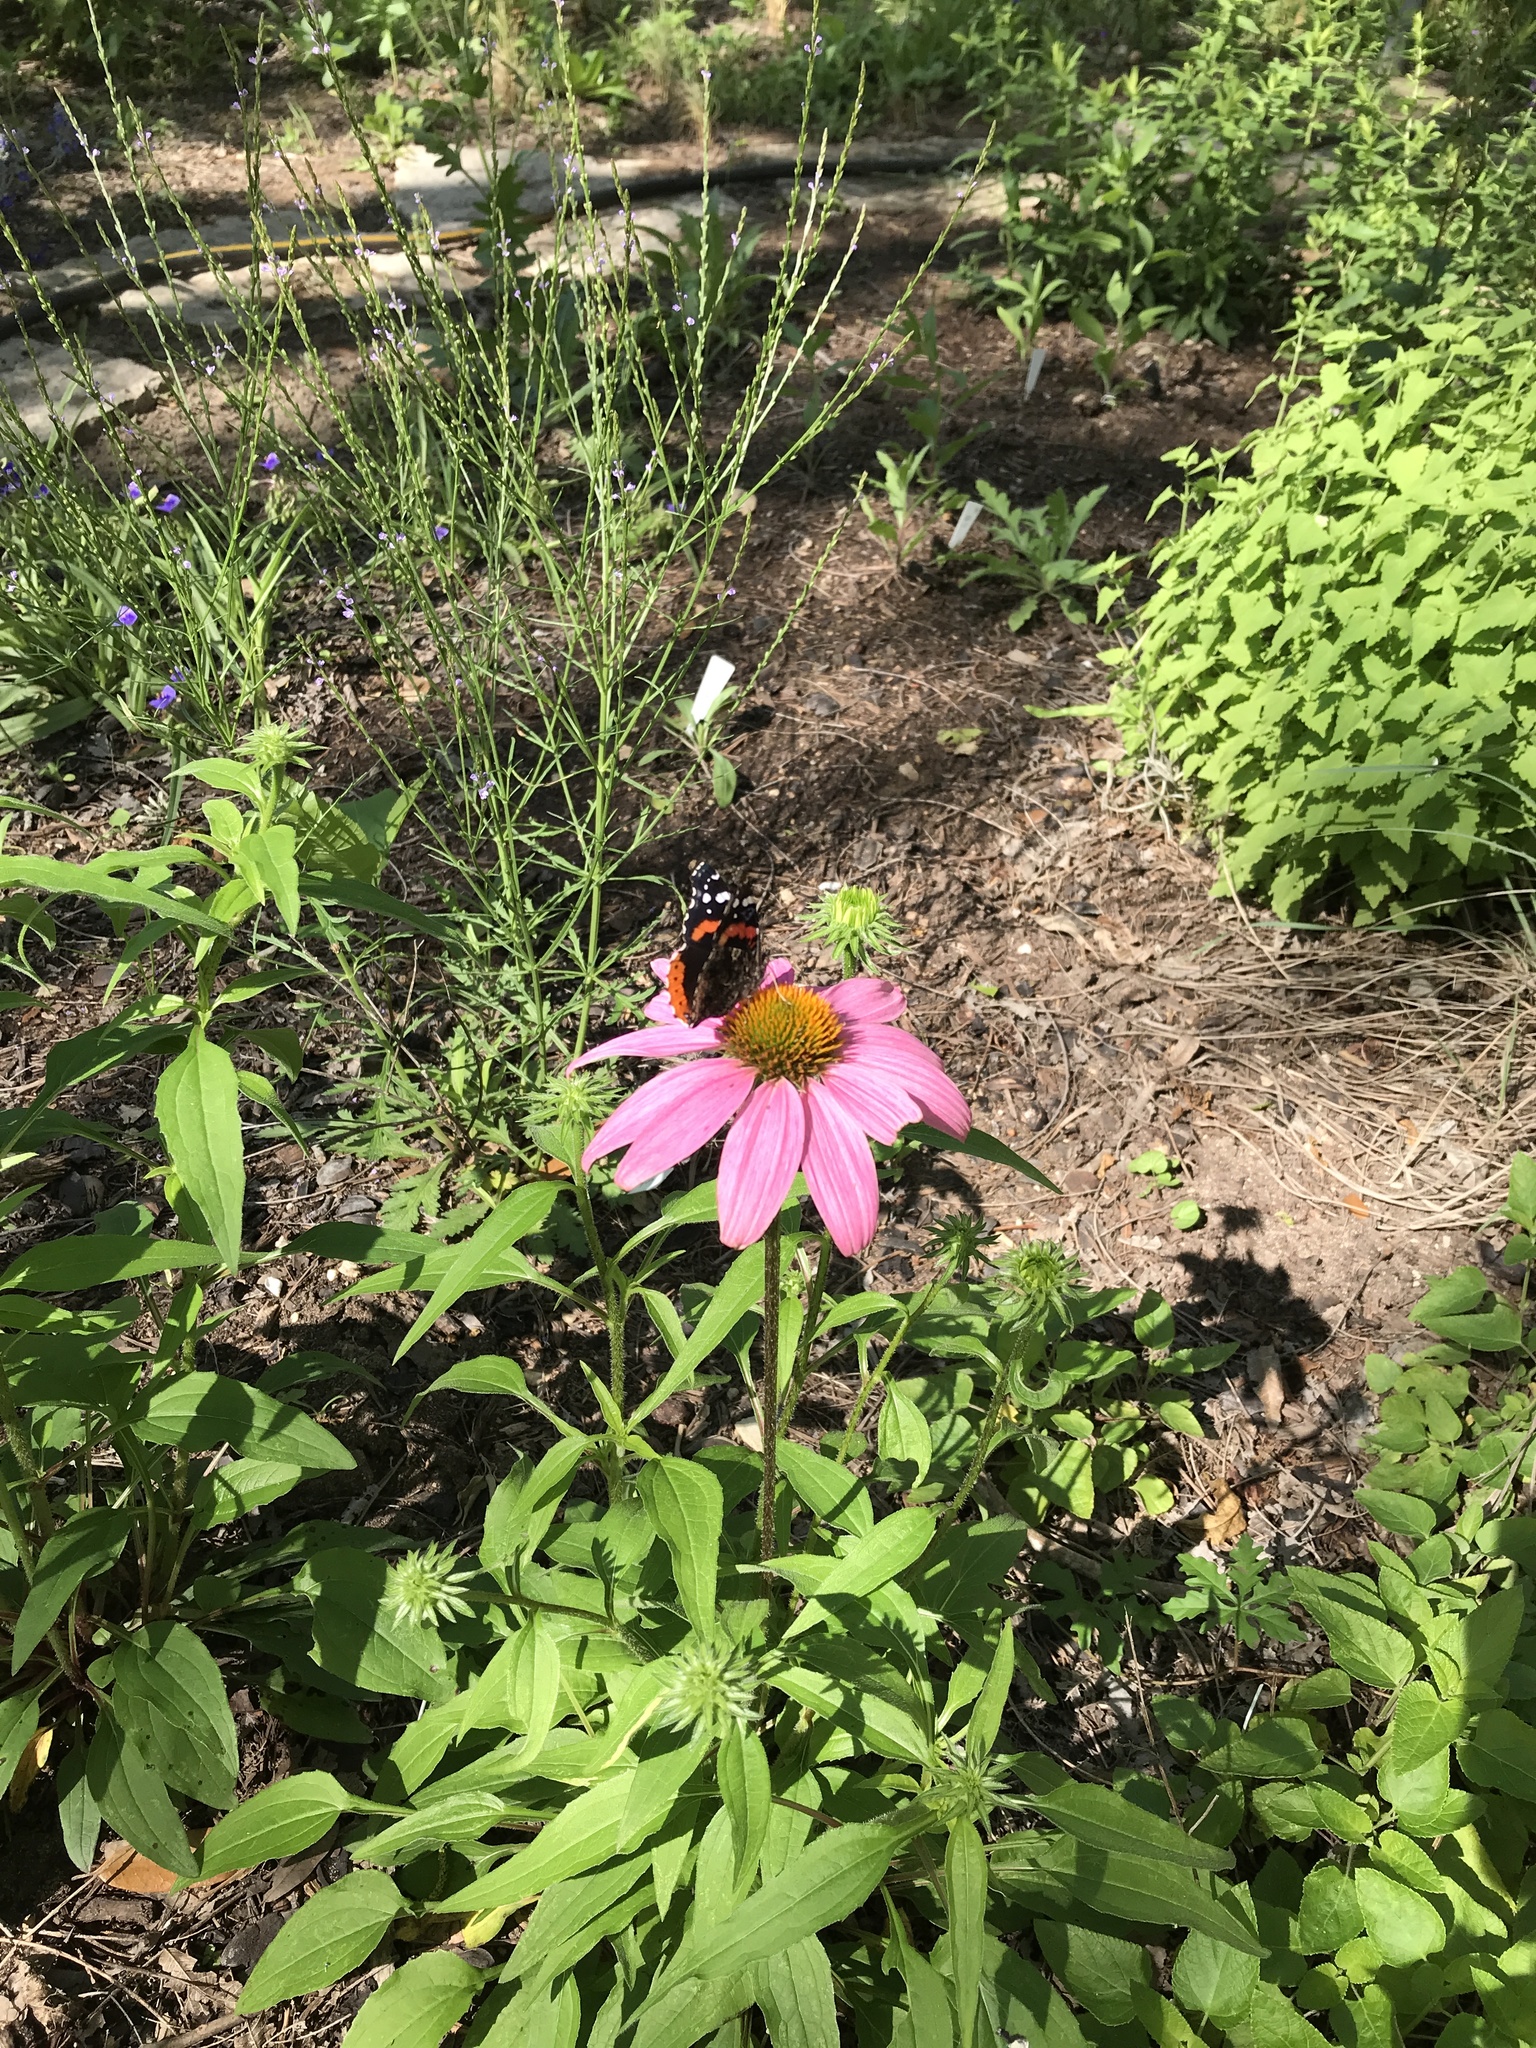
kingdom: Animalia
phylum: Arthropoda
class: Insecta
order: Lepidoptera
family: Nymphalidae
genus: Vanessa
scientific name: Vanessa atalanta
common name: Red admiral
